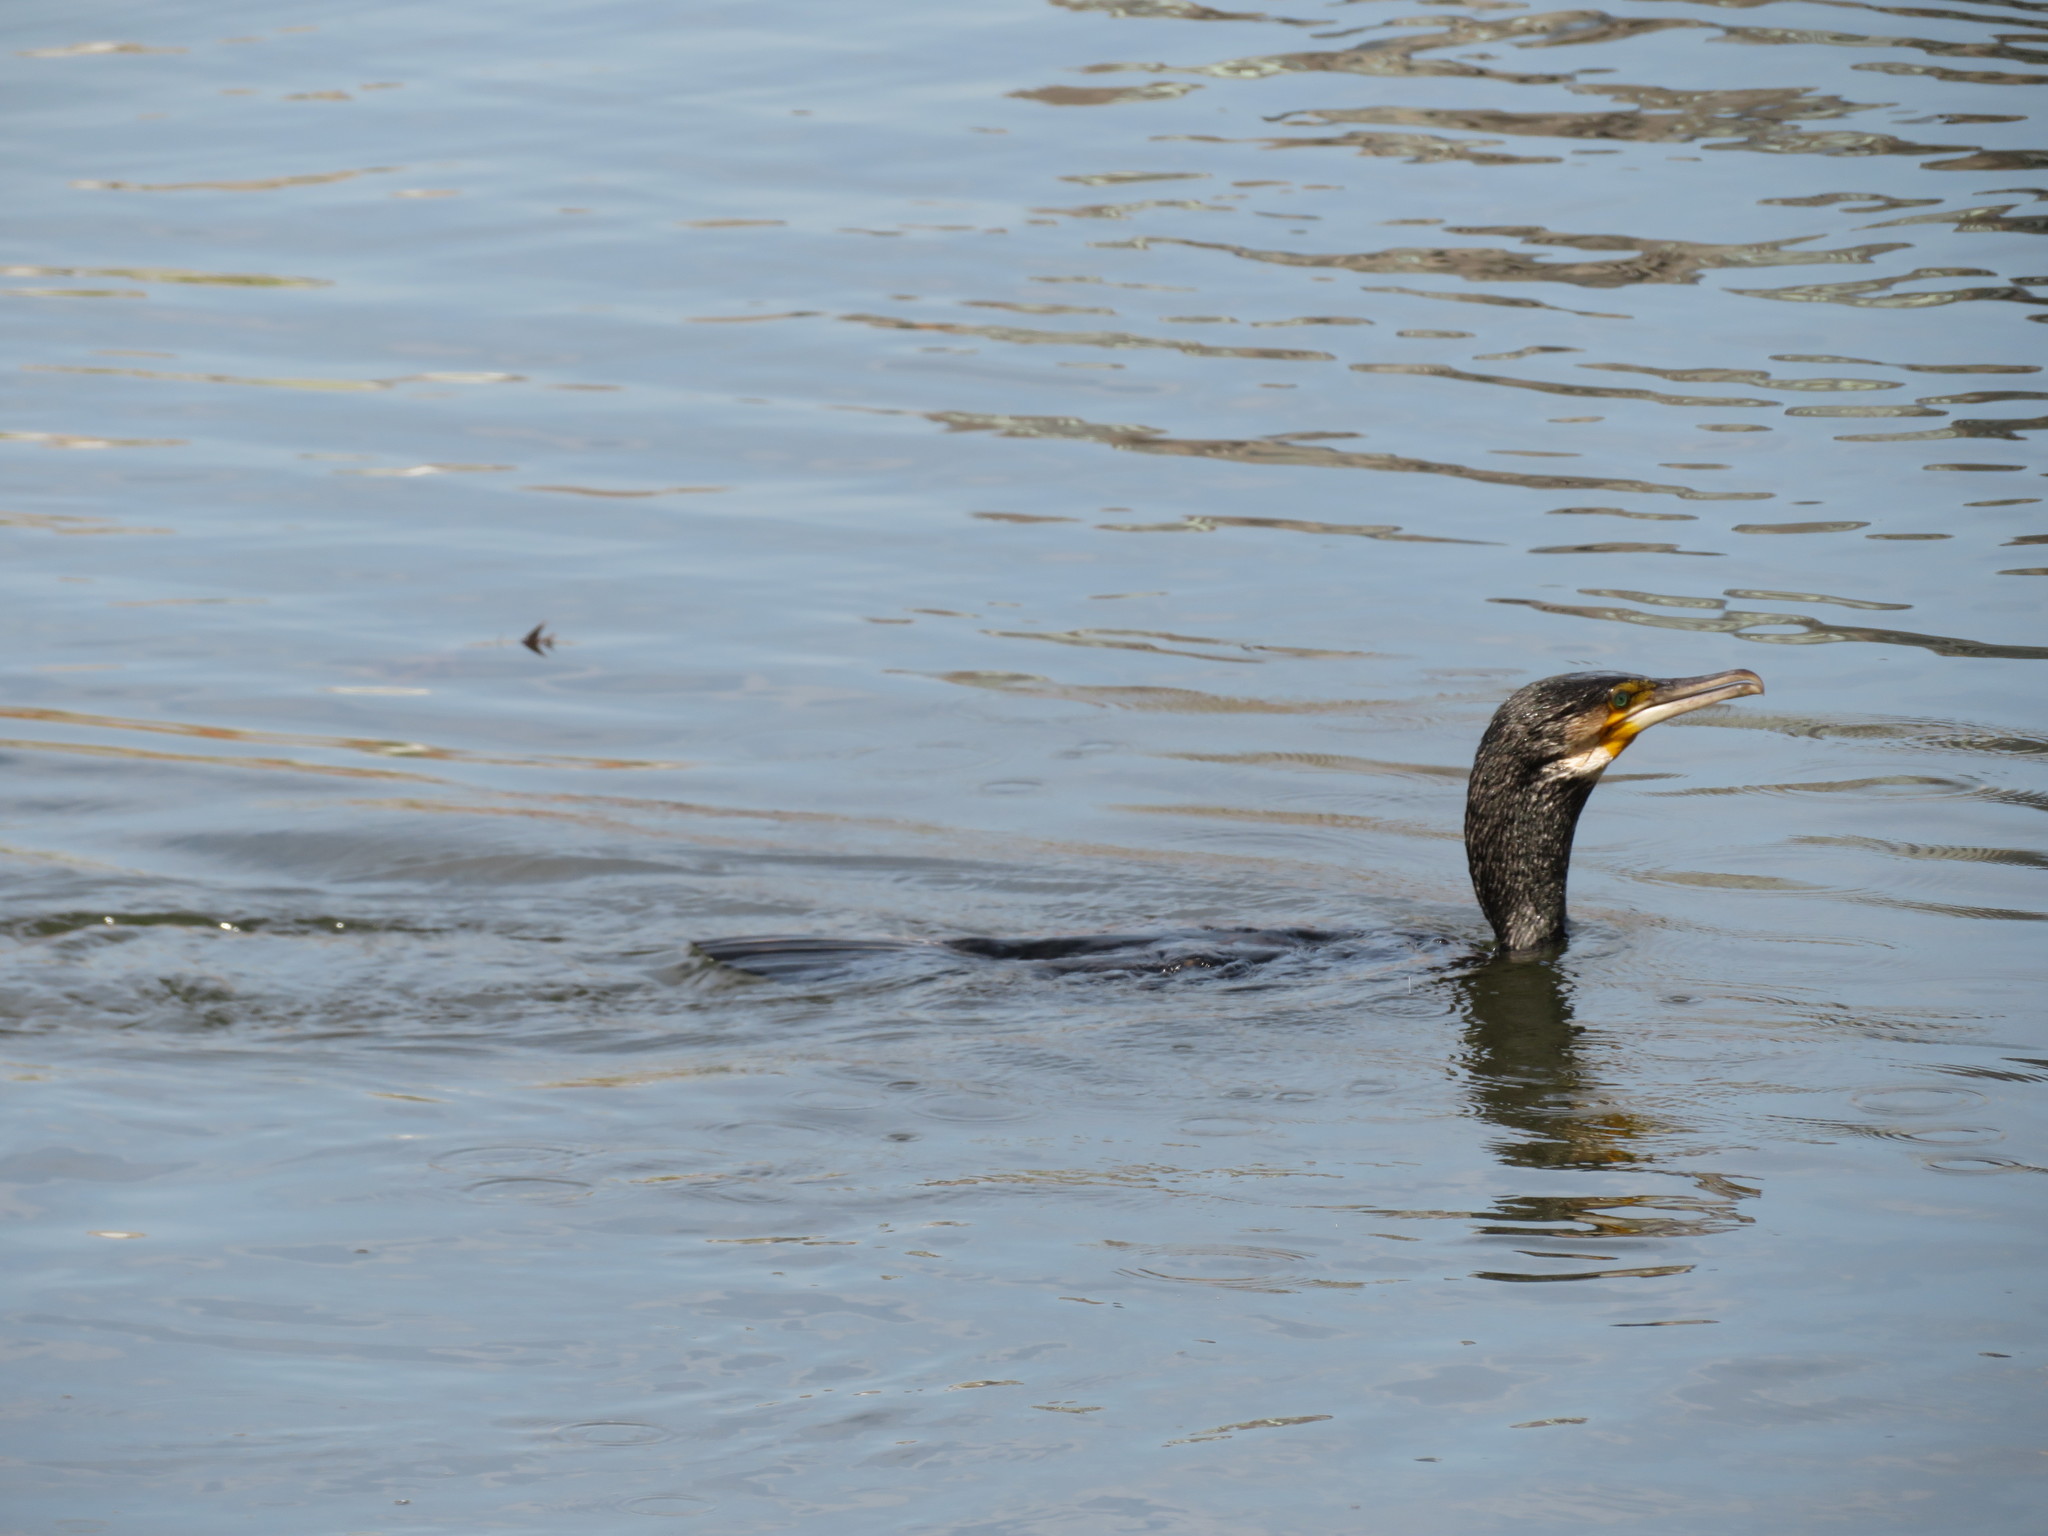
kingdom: Animalia
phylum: Chordata
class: Aves
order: Suliformes
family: Phalacrocoracidae
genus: Phalacrocorax
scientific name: Phalacrocorax carbo
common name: Great cormorant
